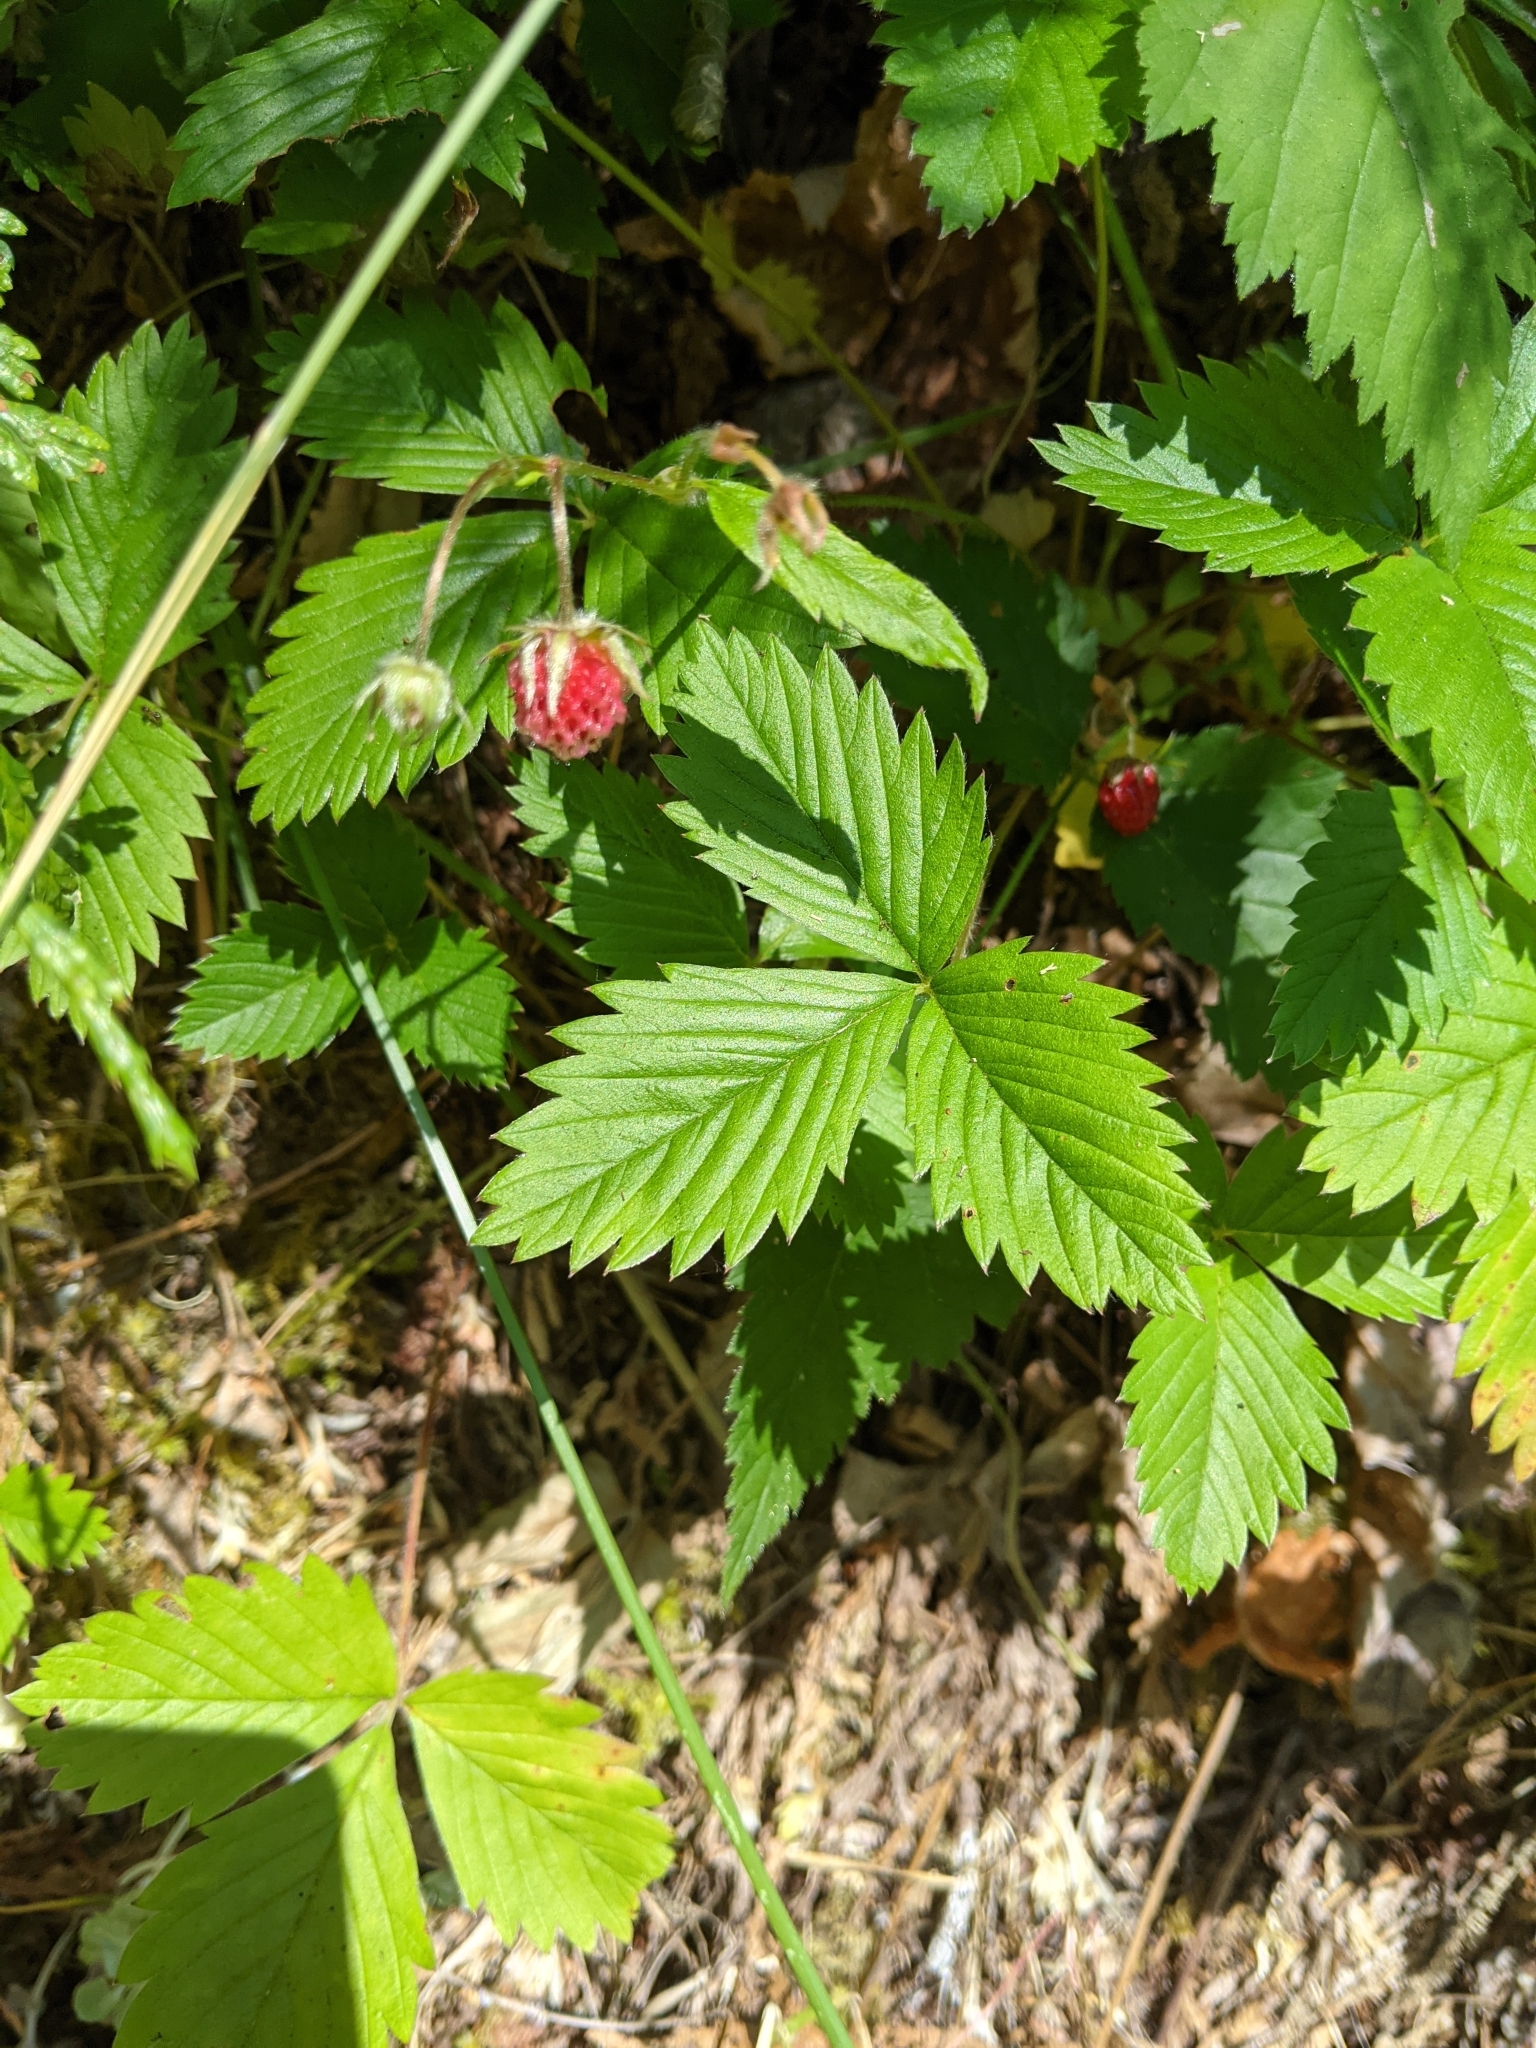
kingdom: Plantae
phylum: Tracheophyta
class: Magnoliopsida
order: Rosales
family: Rosaceae
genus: Fragaria
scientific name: Fragaria vesca
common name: Wild strawberry
